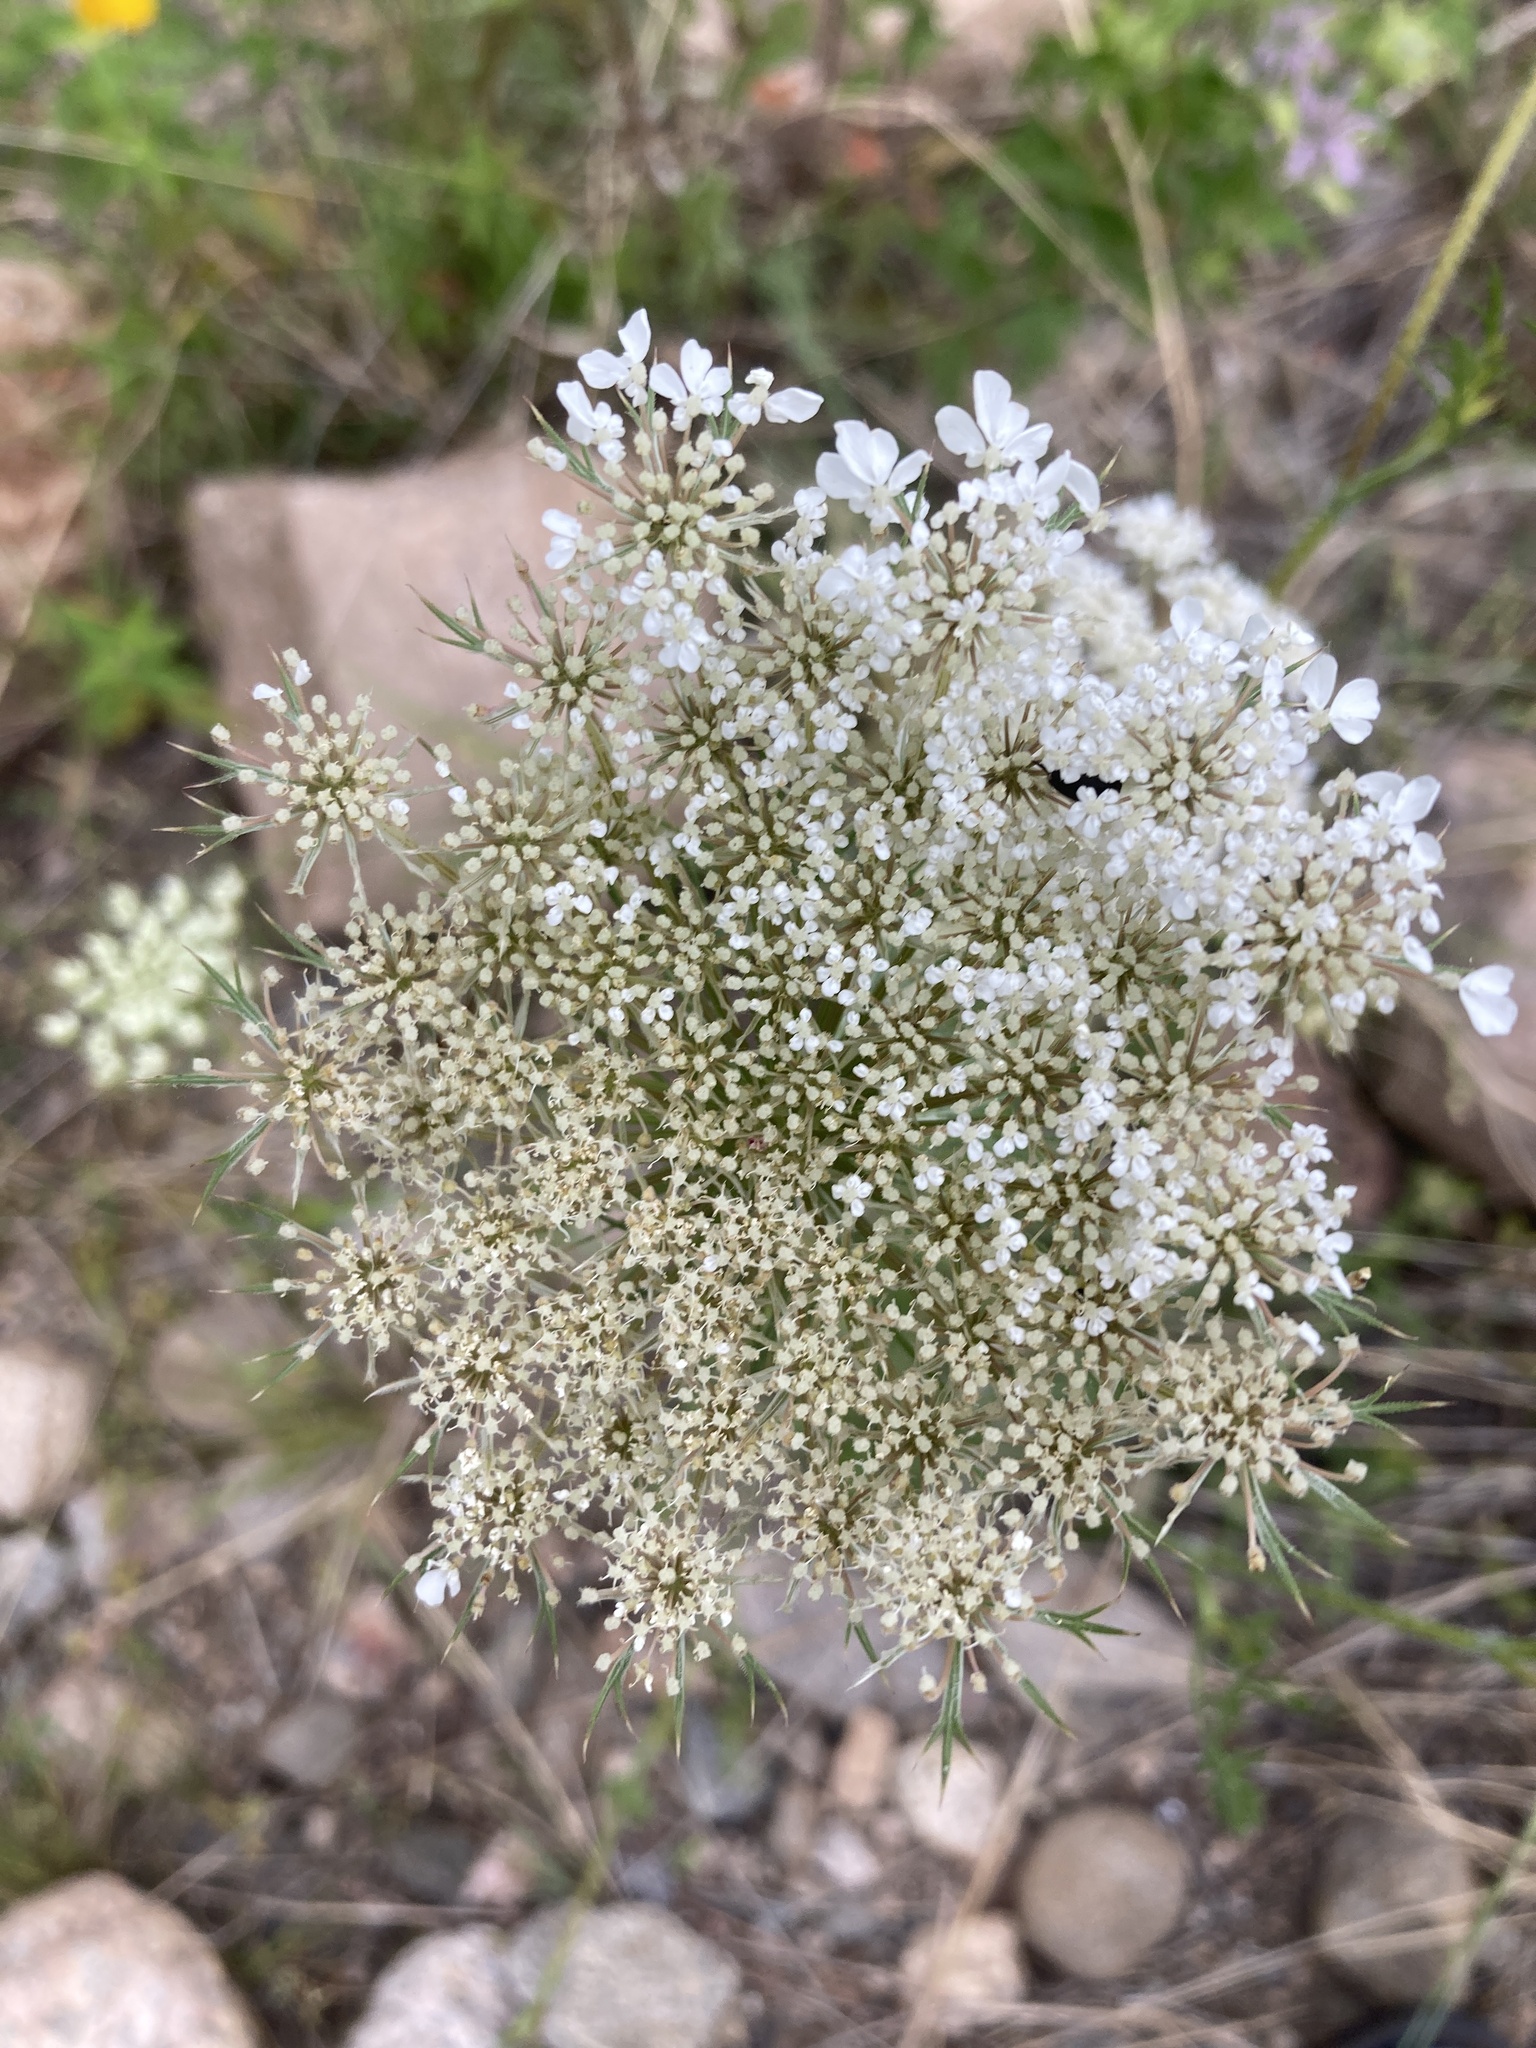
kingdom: Plantae
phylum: Tracheophyta
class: Magnoliopsida
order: Apiales
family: Apiaceae
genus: Daucus
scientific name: Daucus carota
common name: Wild carrot
